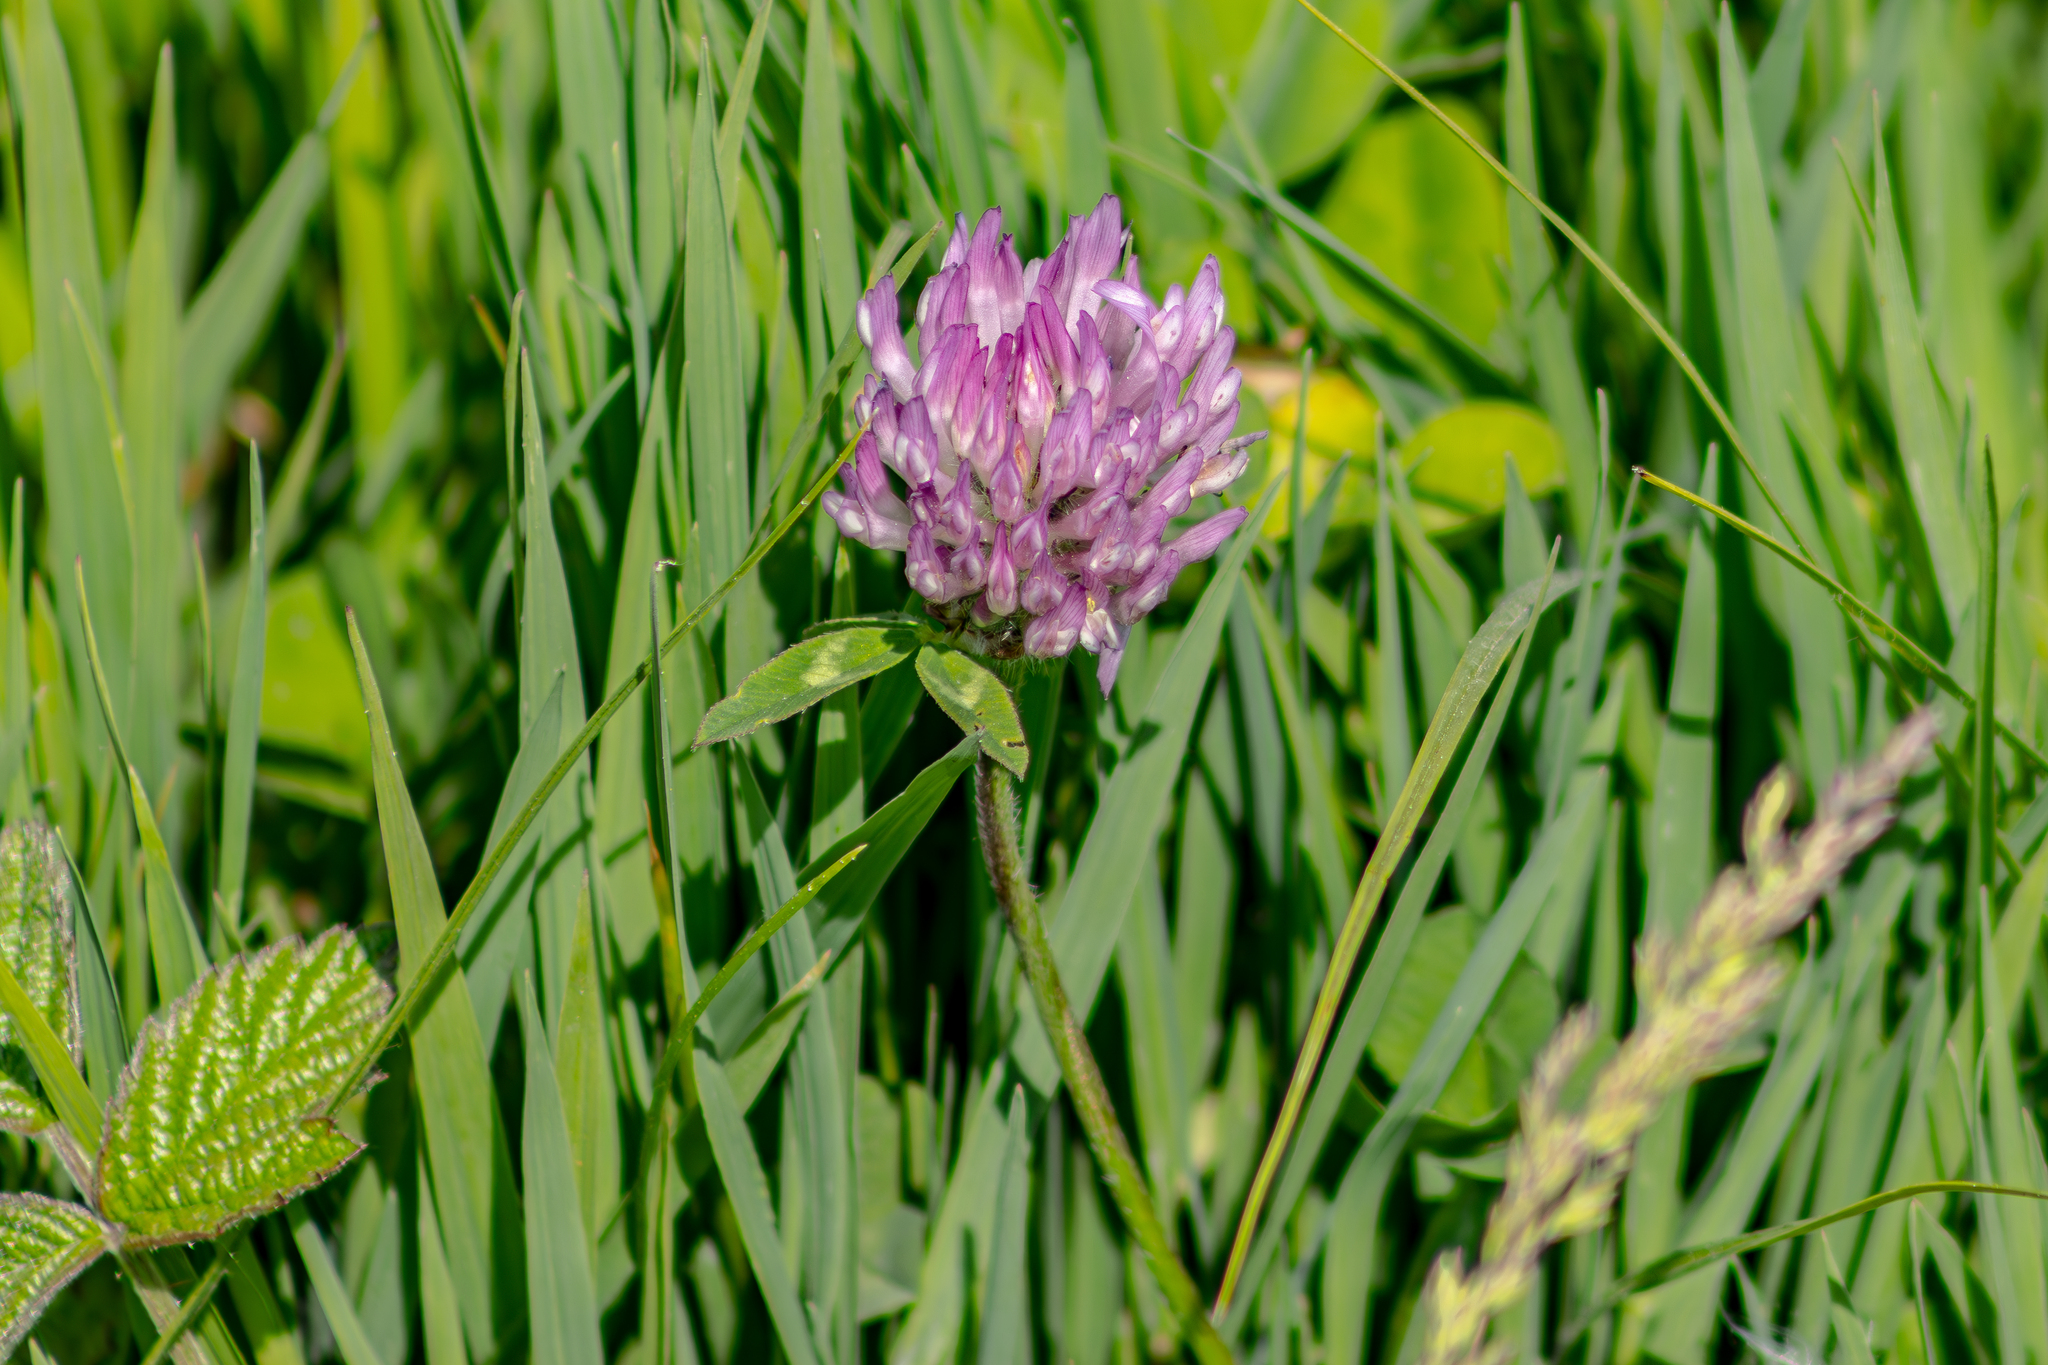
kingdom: Plantae
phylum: Tracheophyta
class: Magnoliopsida
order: Fabales
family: Fabaceae
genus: Trifolium
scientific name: Trifolium pratense
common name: Red clover
